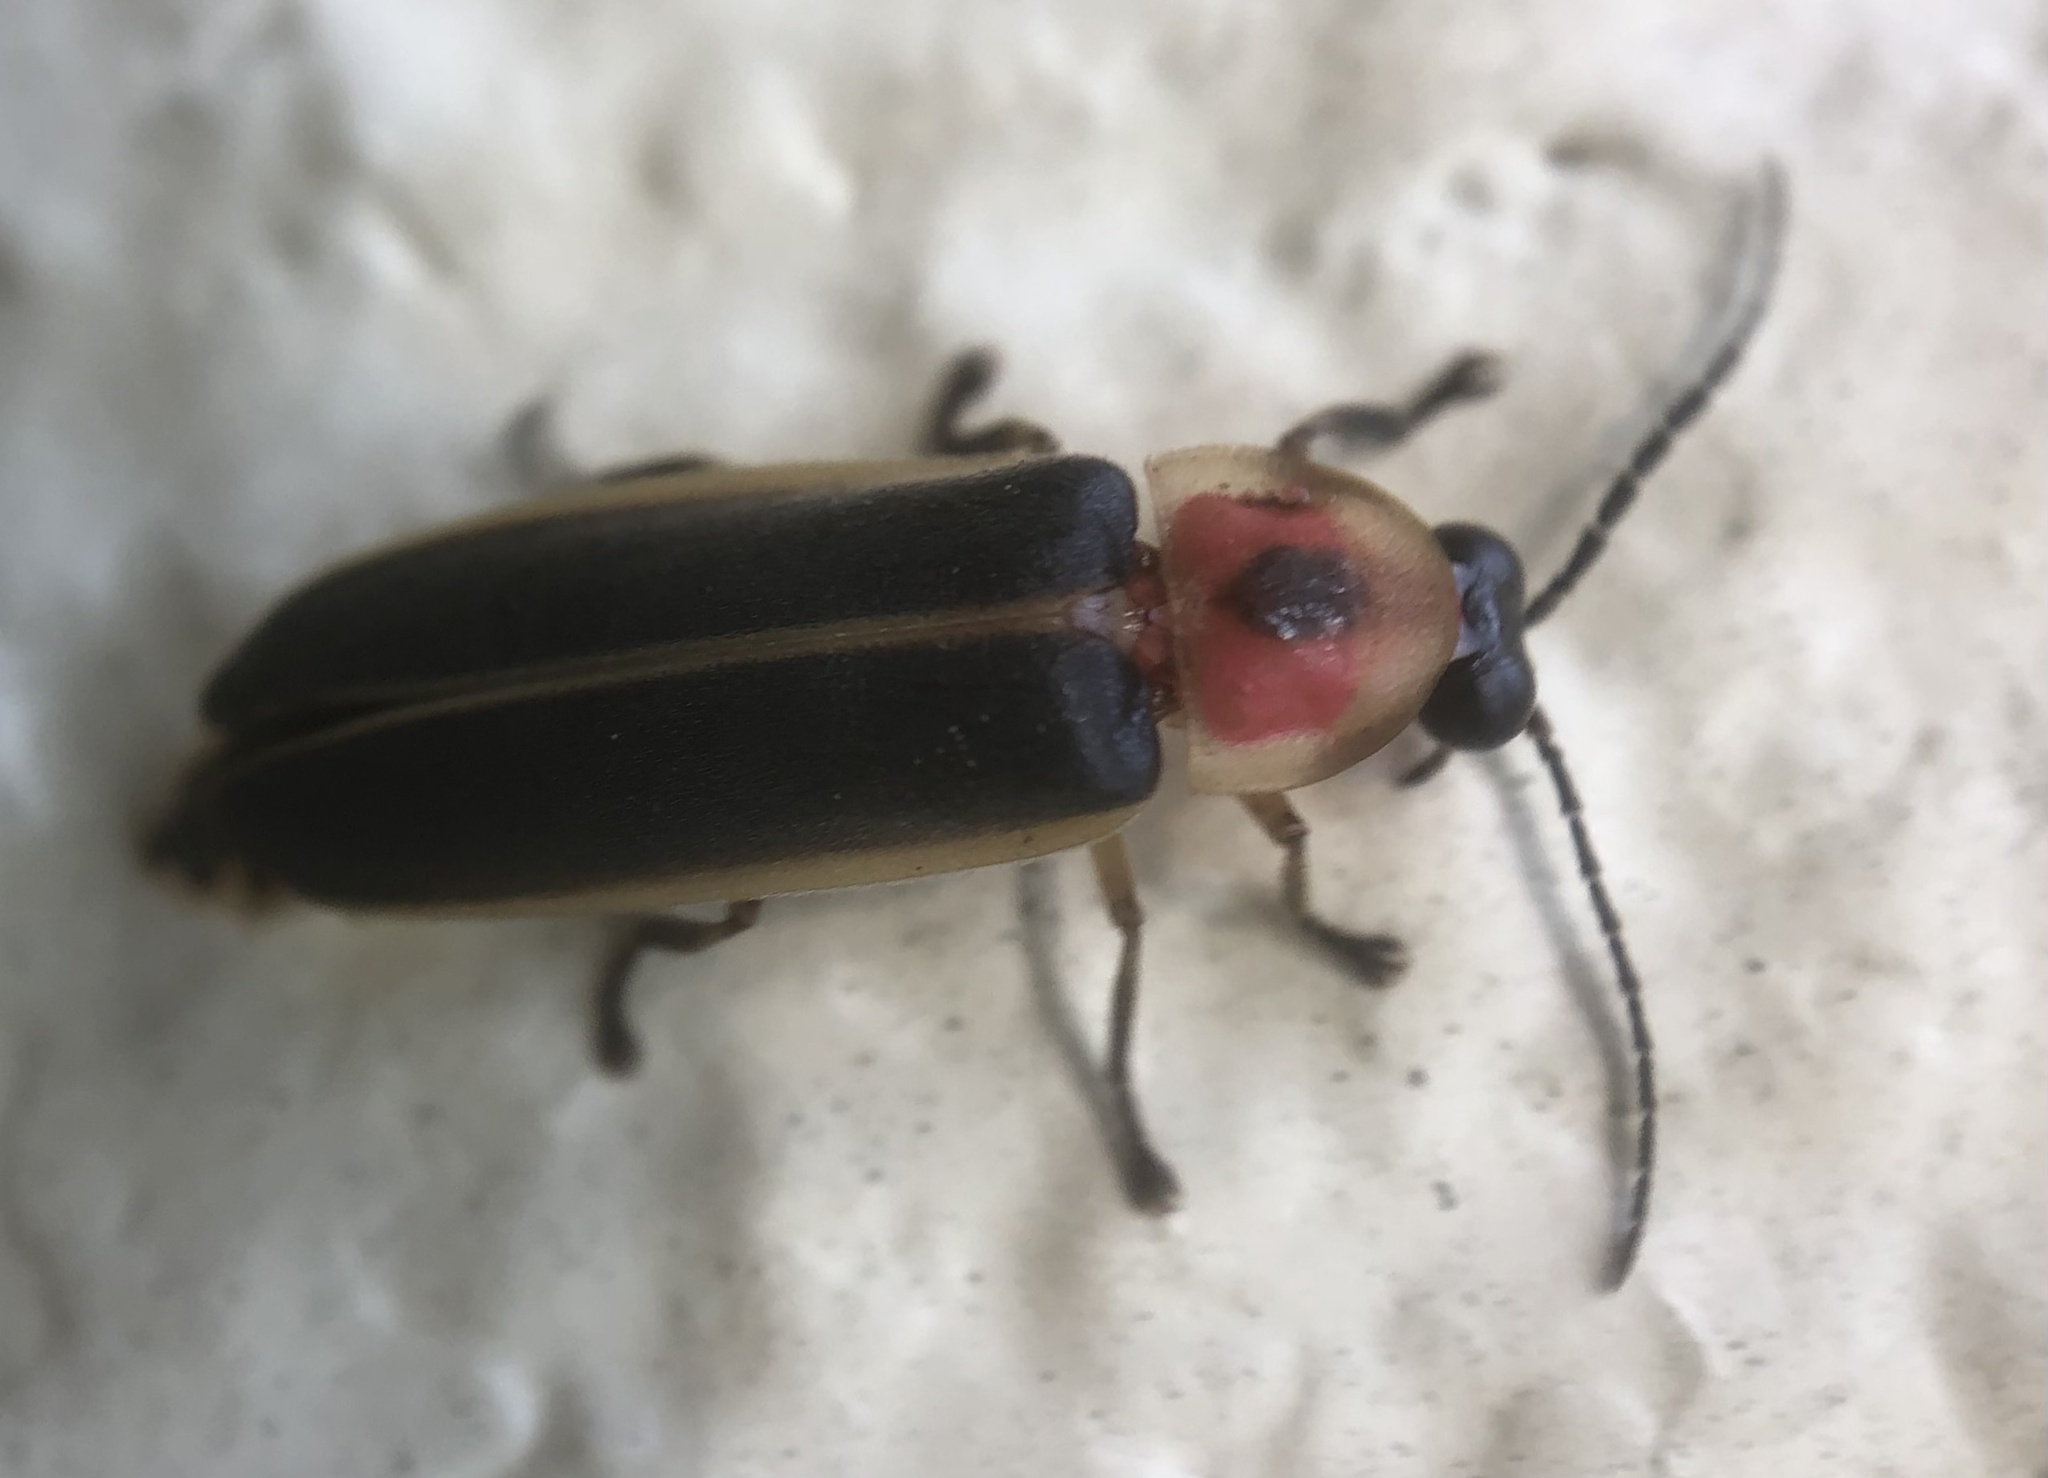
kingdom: Animalia
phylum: Arthropoda
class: Insecta
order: Coleoptera
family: Lampyridae
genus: Photinus
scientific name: Photinus pyralis
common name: Big dipper firefly
